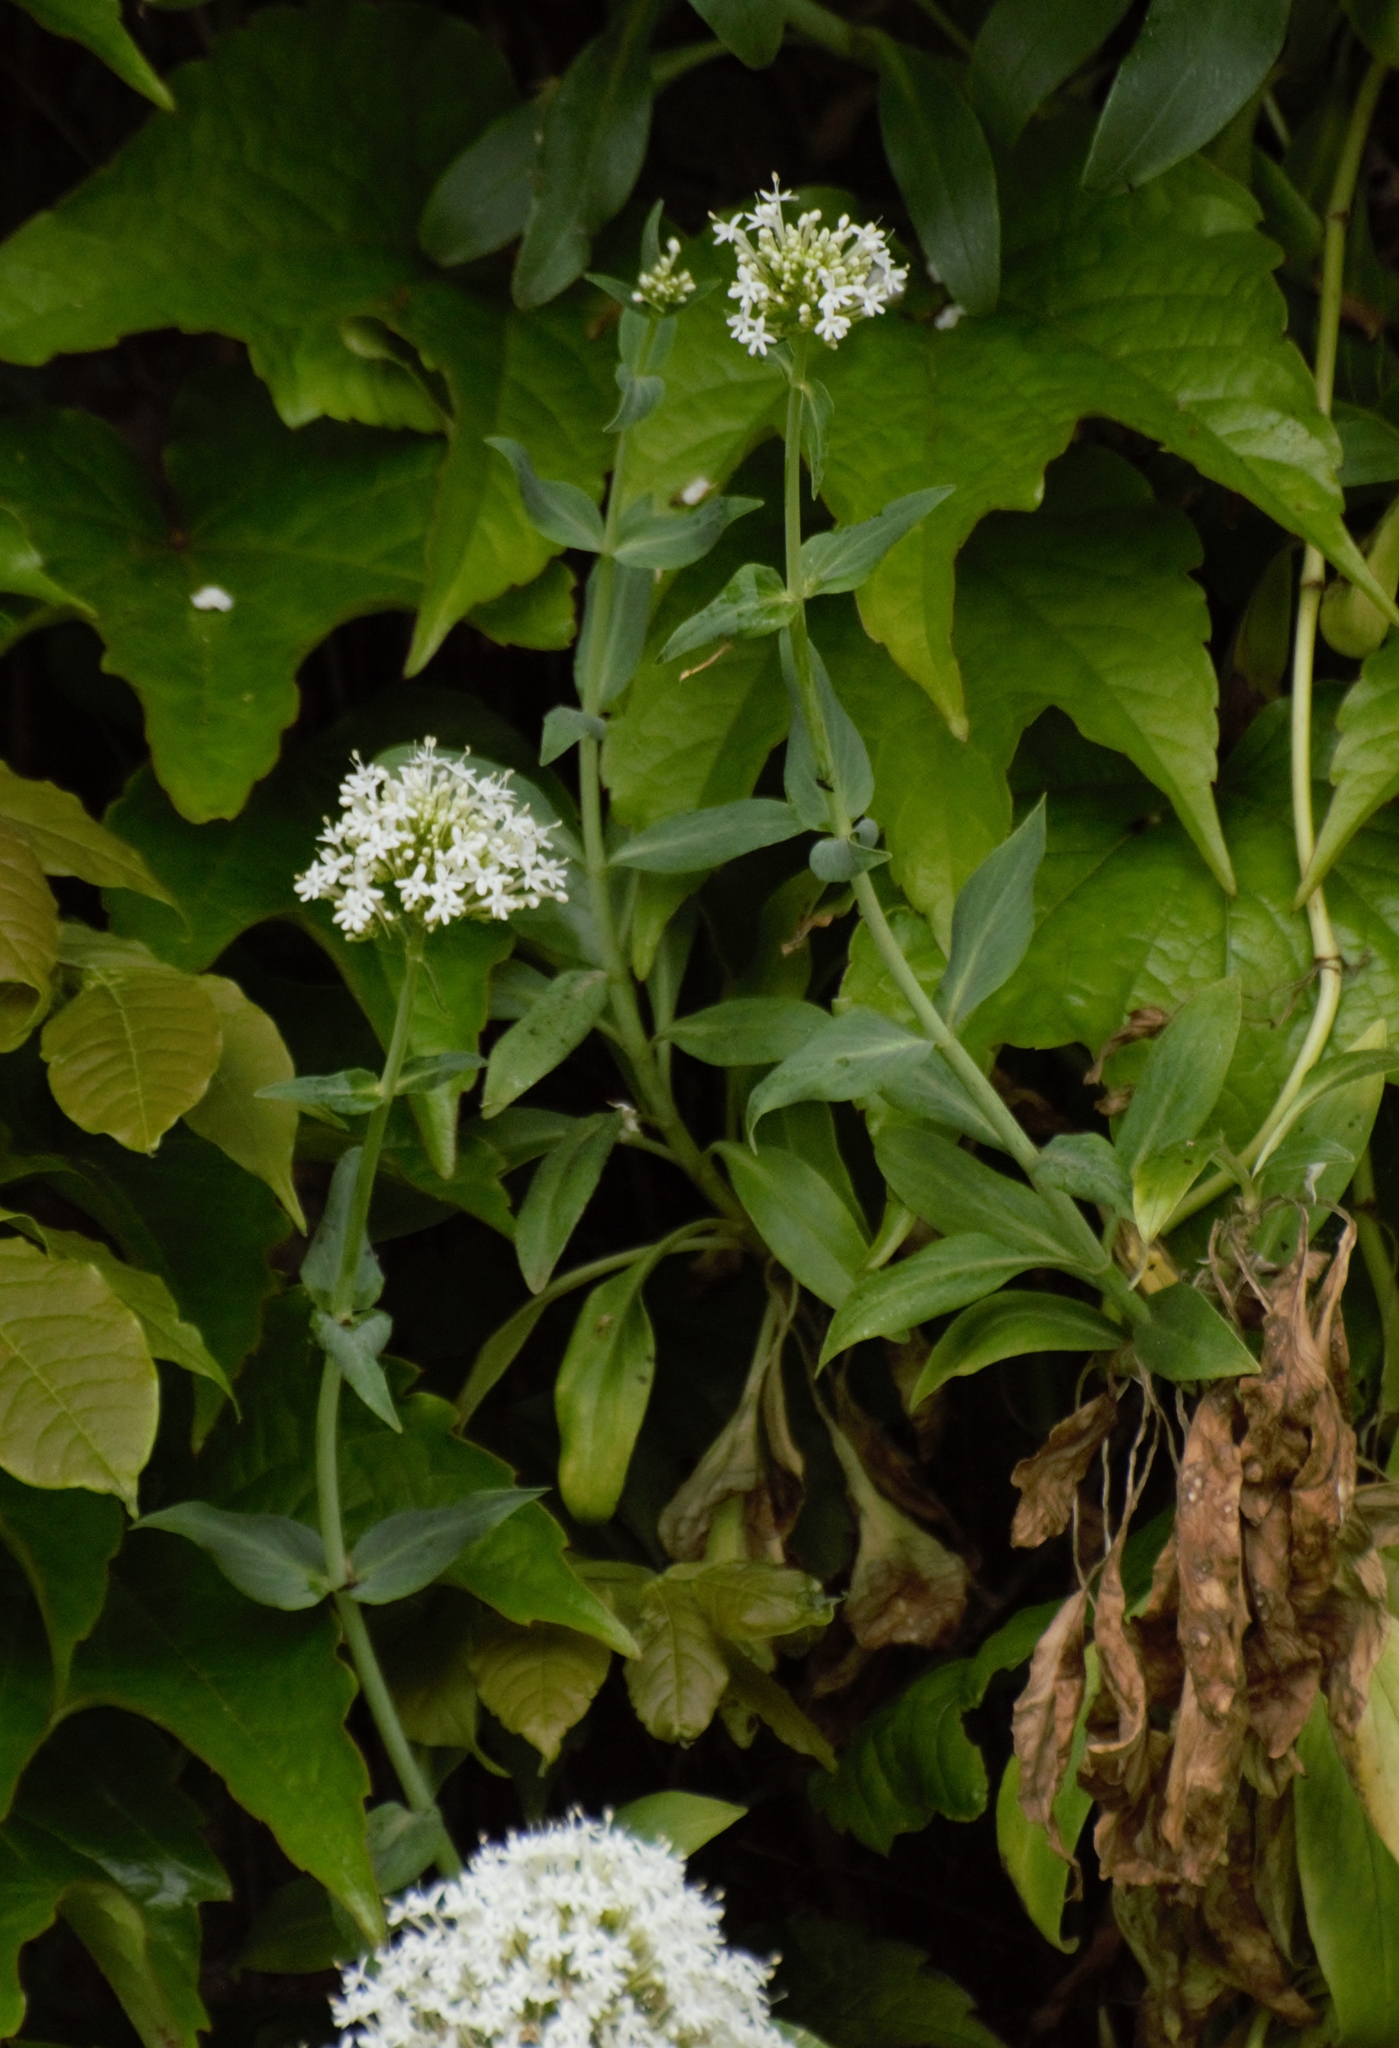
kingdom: Plantae
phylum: Tracheophyta
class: Magnoliopsida
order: Dipsacales
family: Caprifoliaceae
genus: Centranthus
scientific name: Centranthus ruber
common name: Red valerian
